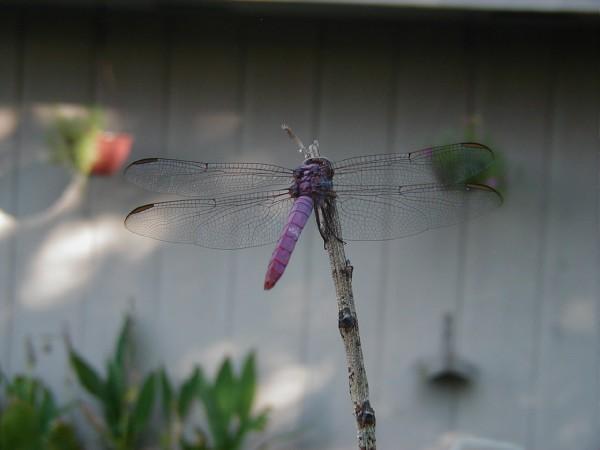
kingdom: Animalia
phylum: Arthropoda
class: Insecta
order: Odonata
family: Libellulidae
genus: Orthemis
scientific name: Orthemis ferruginea
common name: Roseate skimmer
